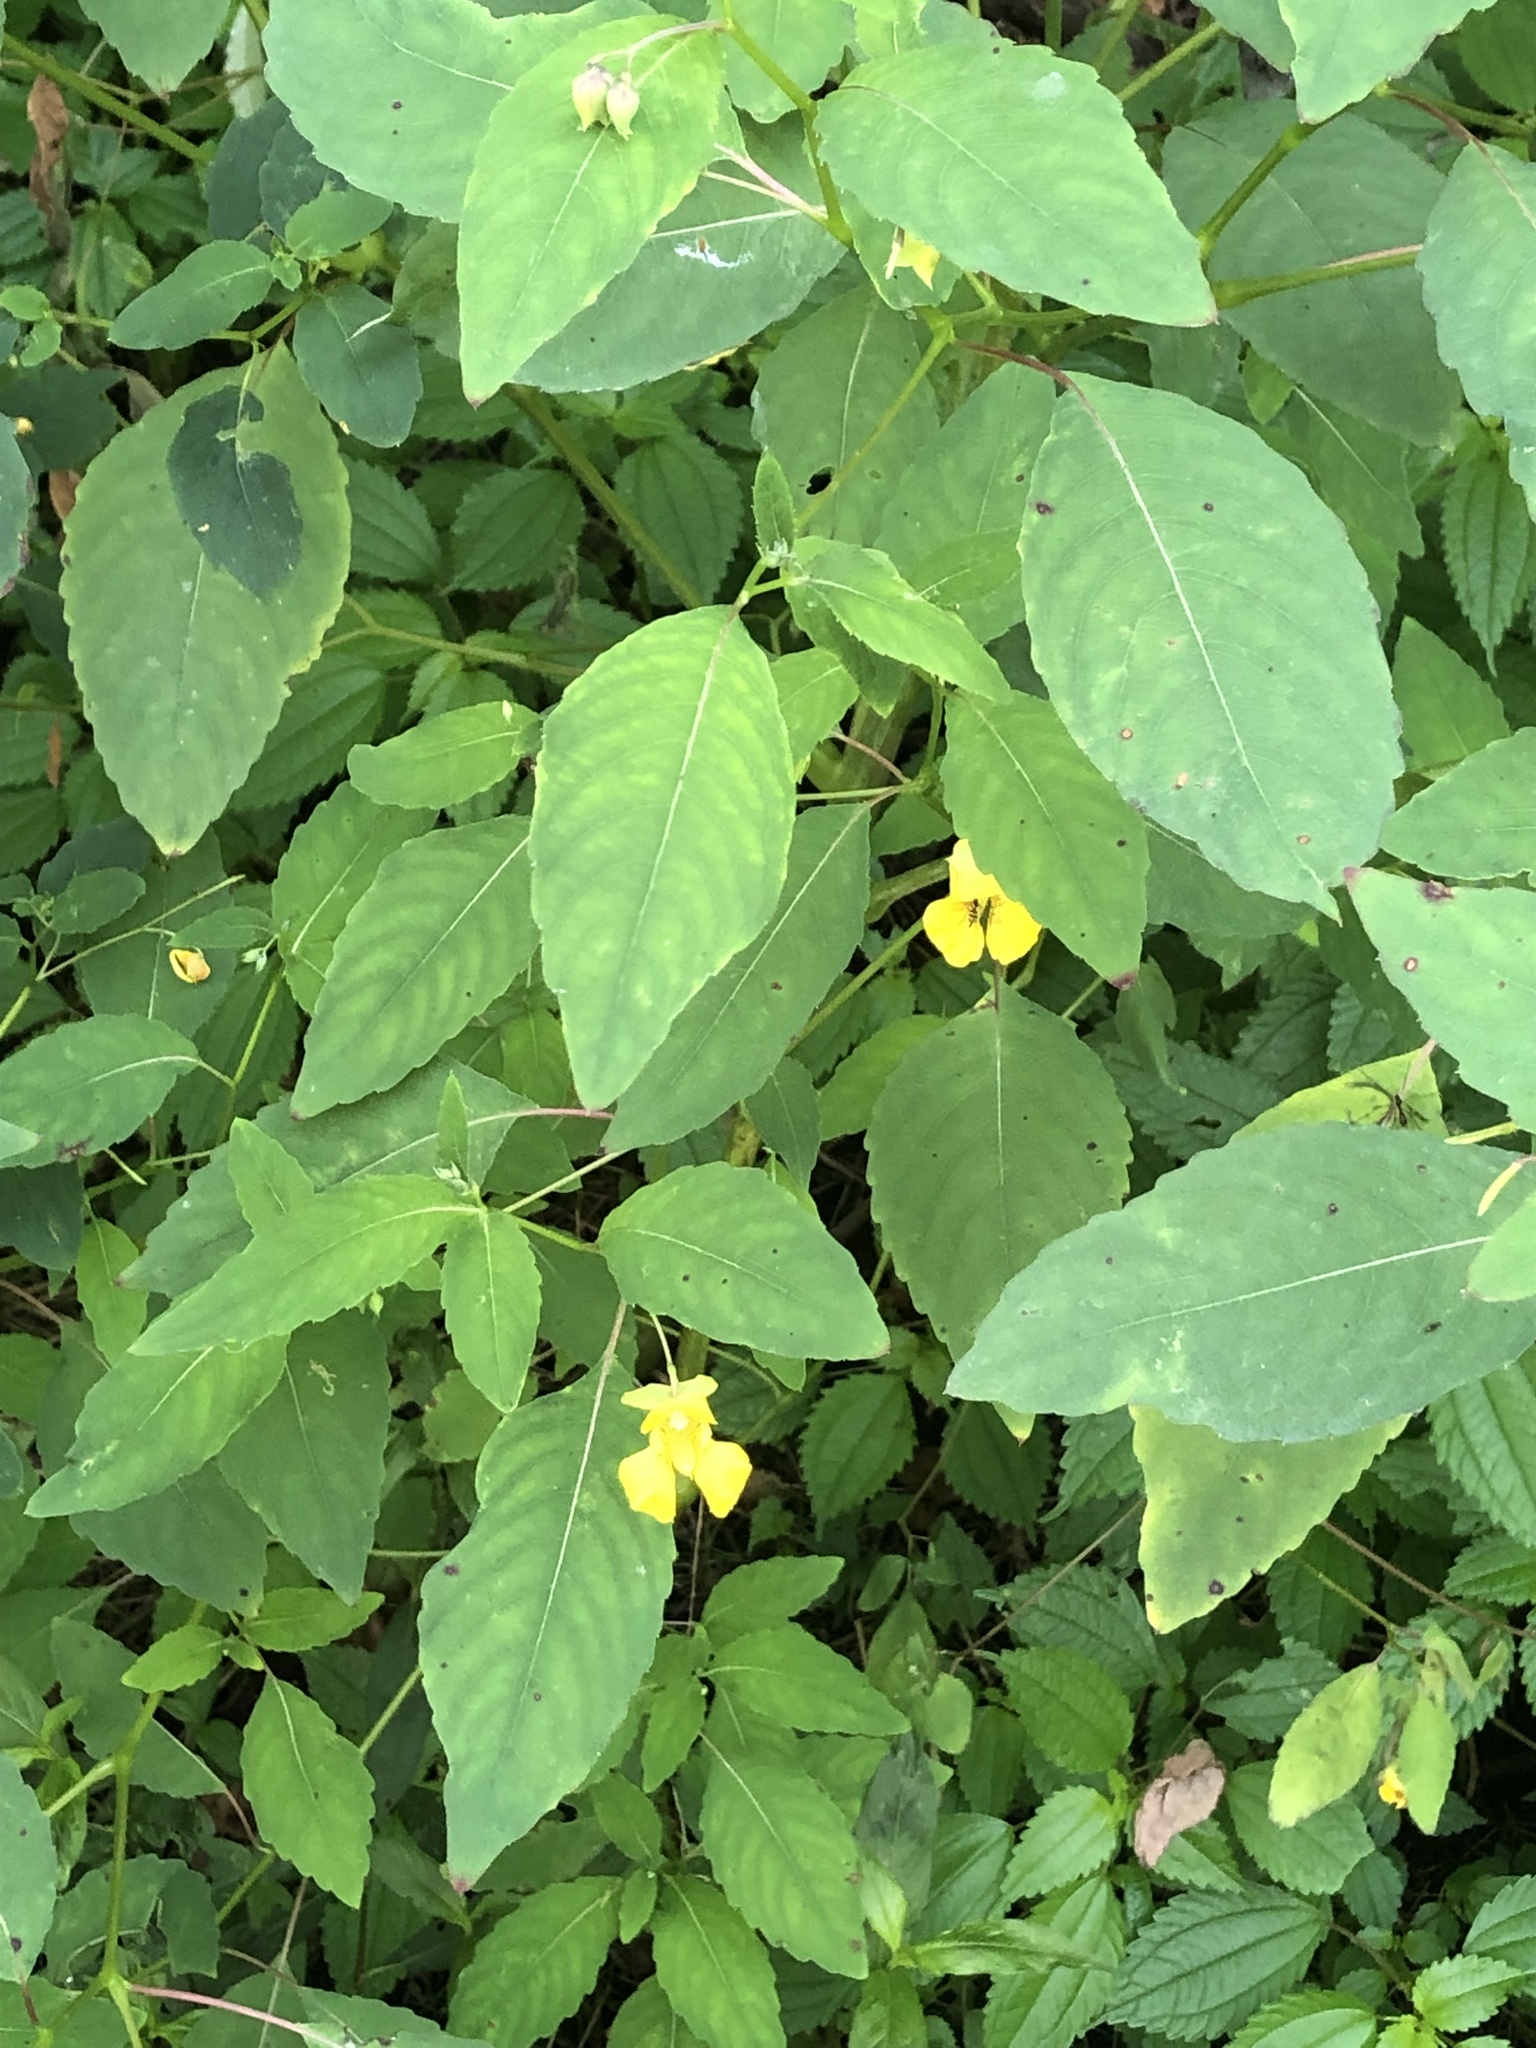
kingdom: Plantae
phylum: Tracheophyta
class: Magnoliopsida
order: Ericales
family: Balsaminaceae
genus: Impatiens
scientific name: Impatiens pallida
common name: Pale snapweed
